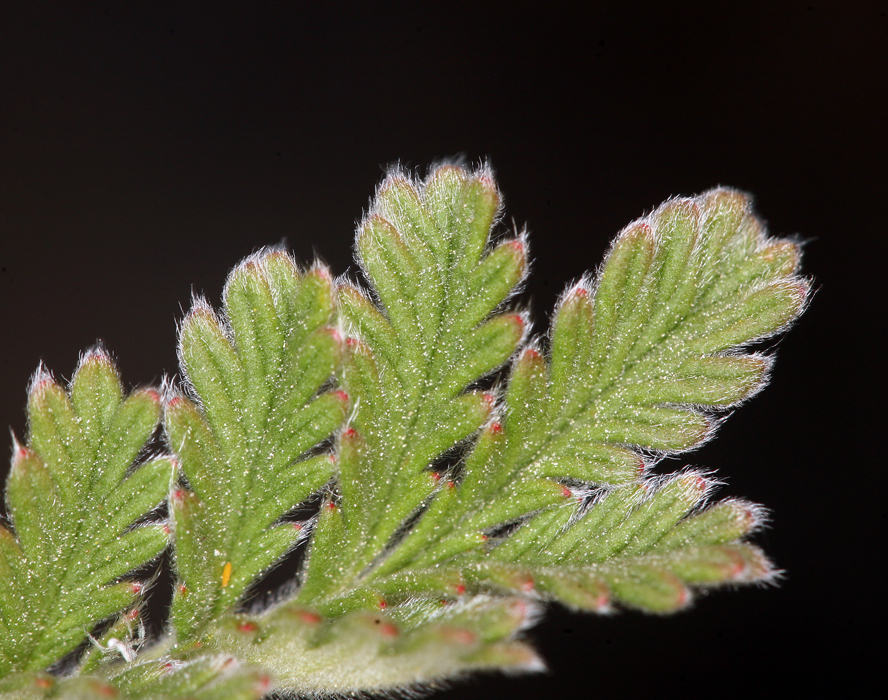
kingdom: Plantae
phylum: Tracheophyta
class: Magnoliopsida
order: Rosales
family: Rosaceae
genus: Potentilla
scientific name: Potentilla pensylvanica
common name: Pennsylvania cinquefoil
